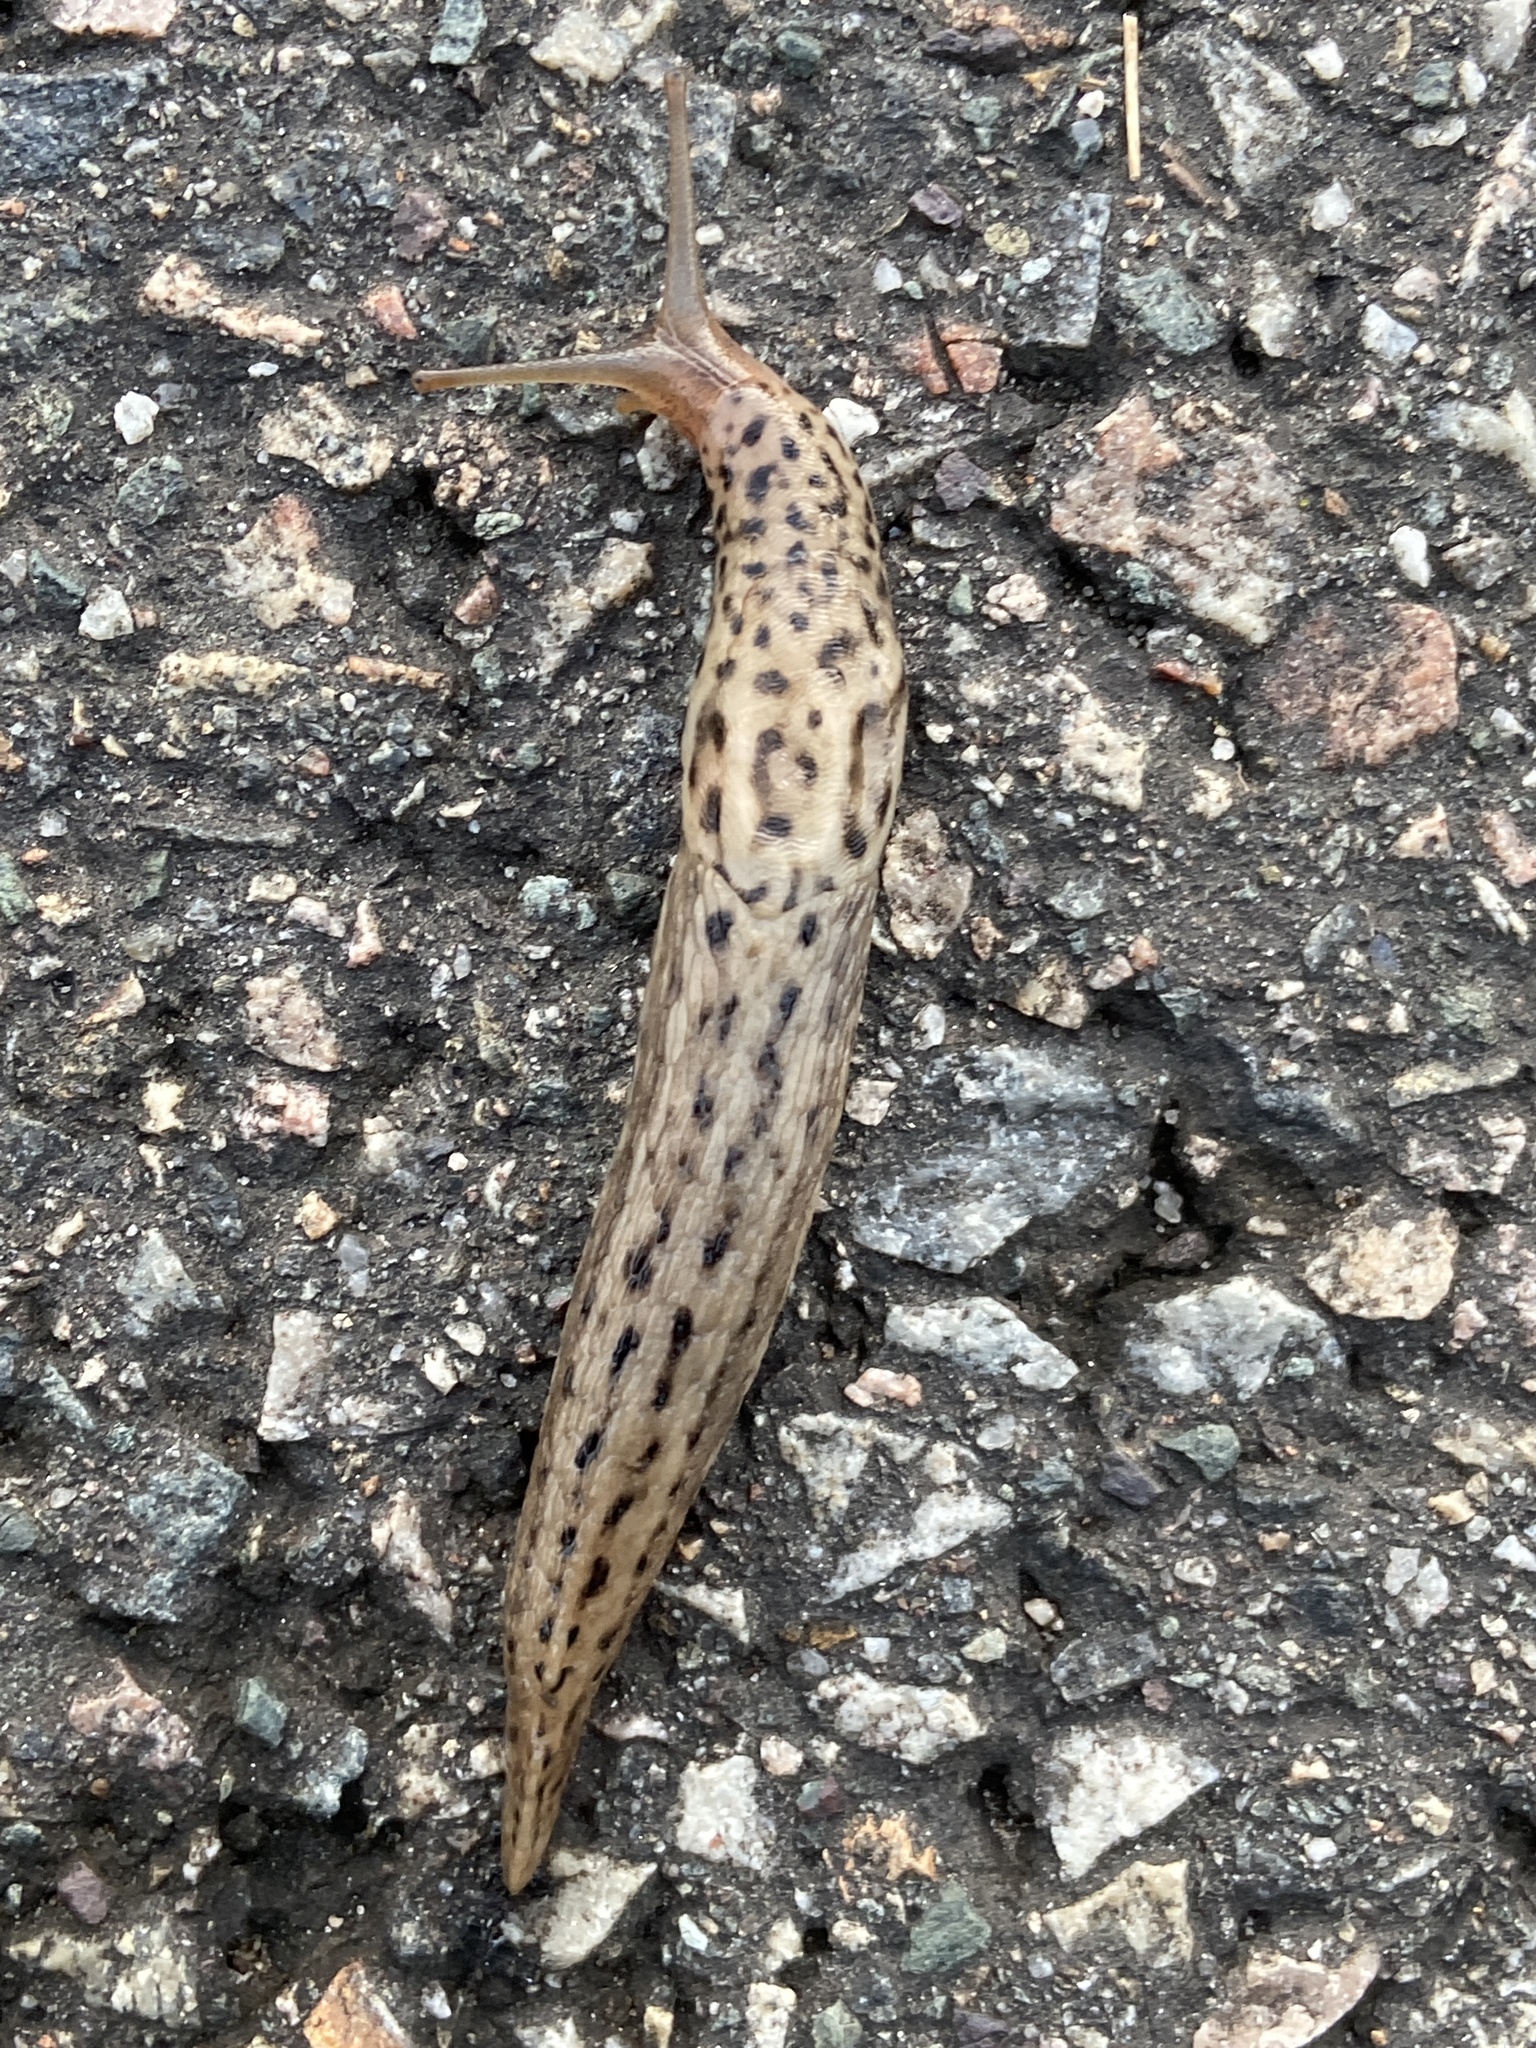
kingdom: Animalia
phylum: Mollusca
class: Gastropoda
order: Stylommatophora
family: Limacidae
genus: Limax
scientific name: Limax maximus
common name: Great grey slug
